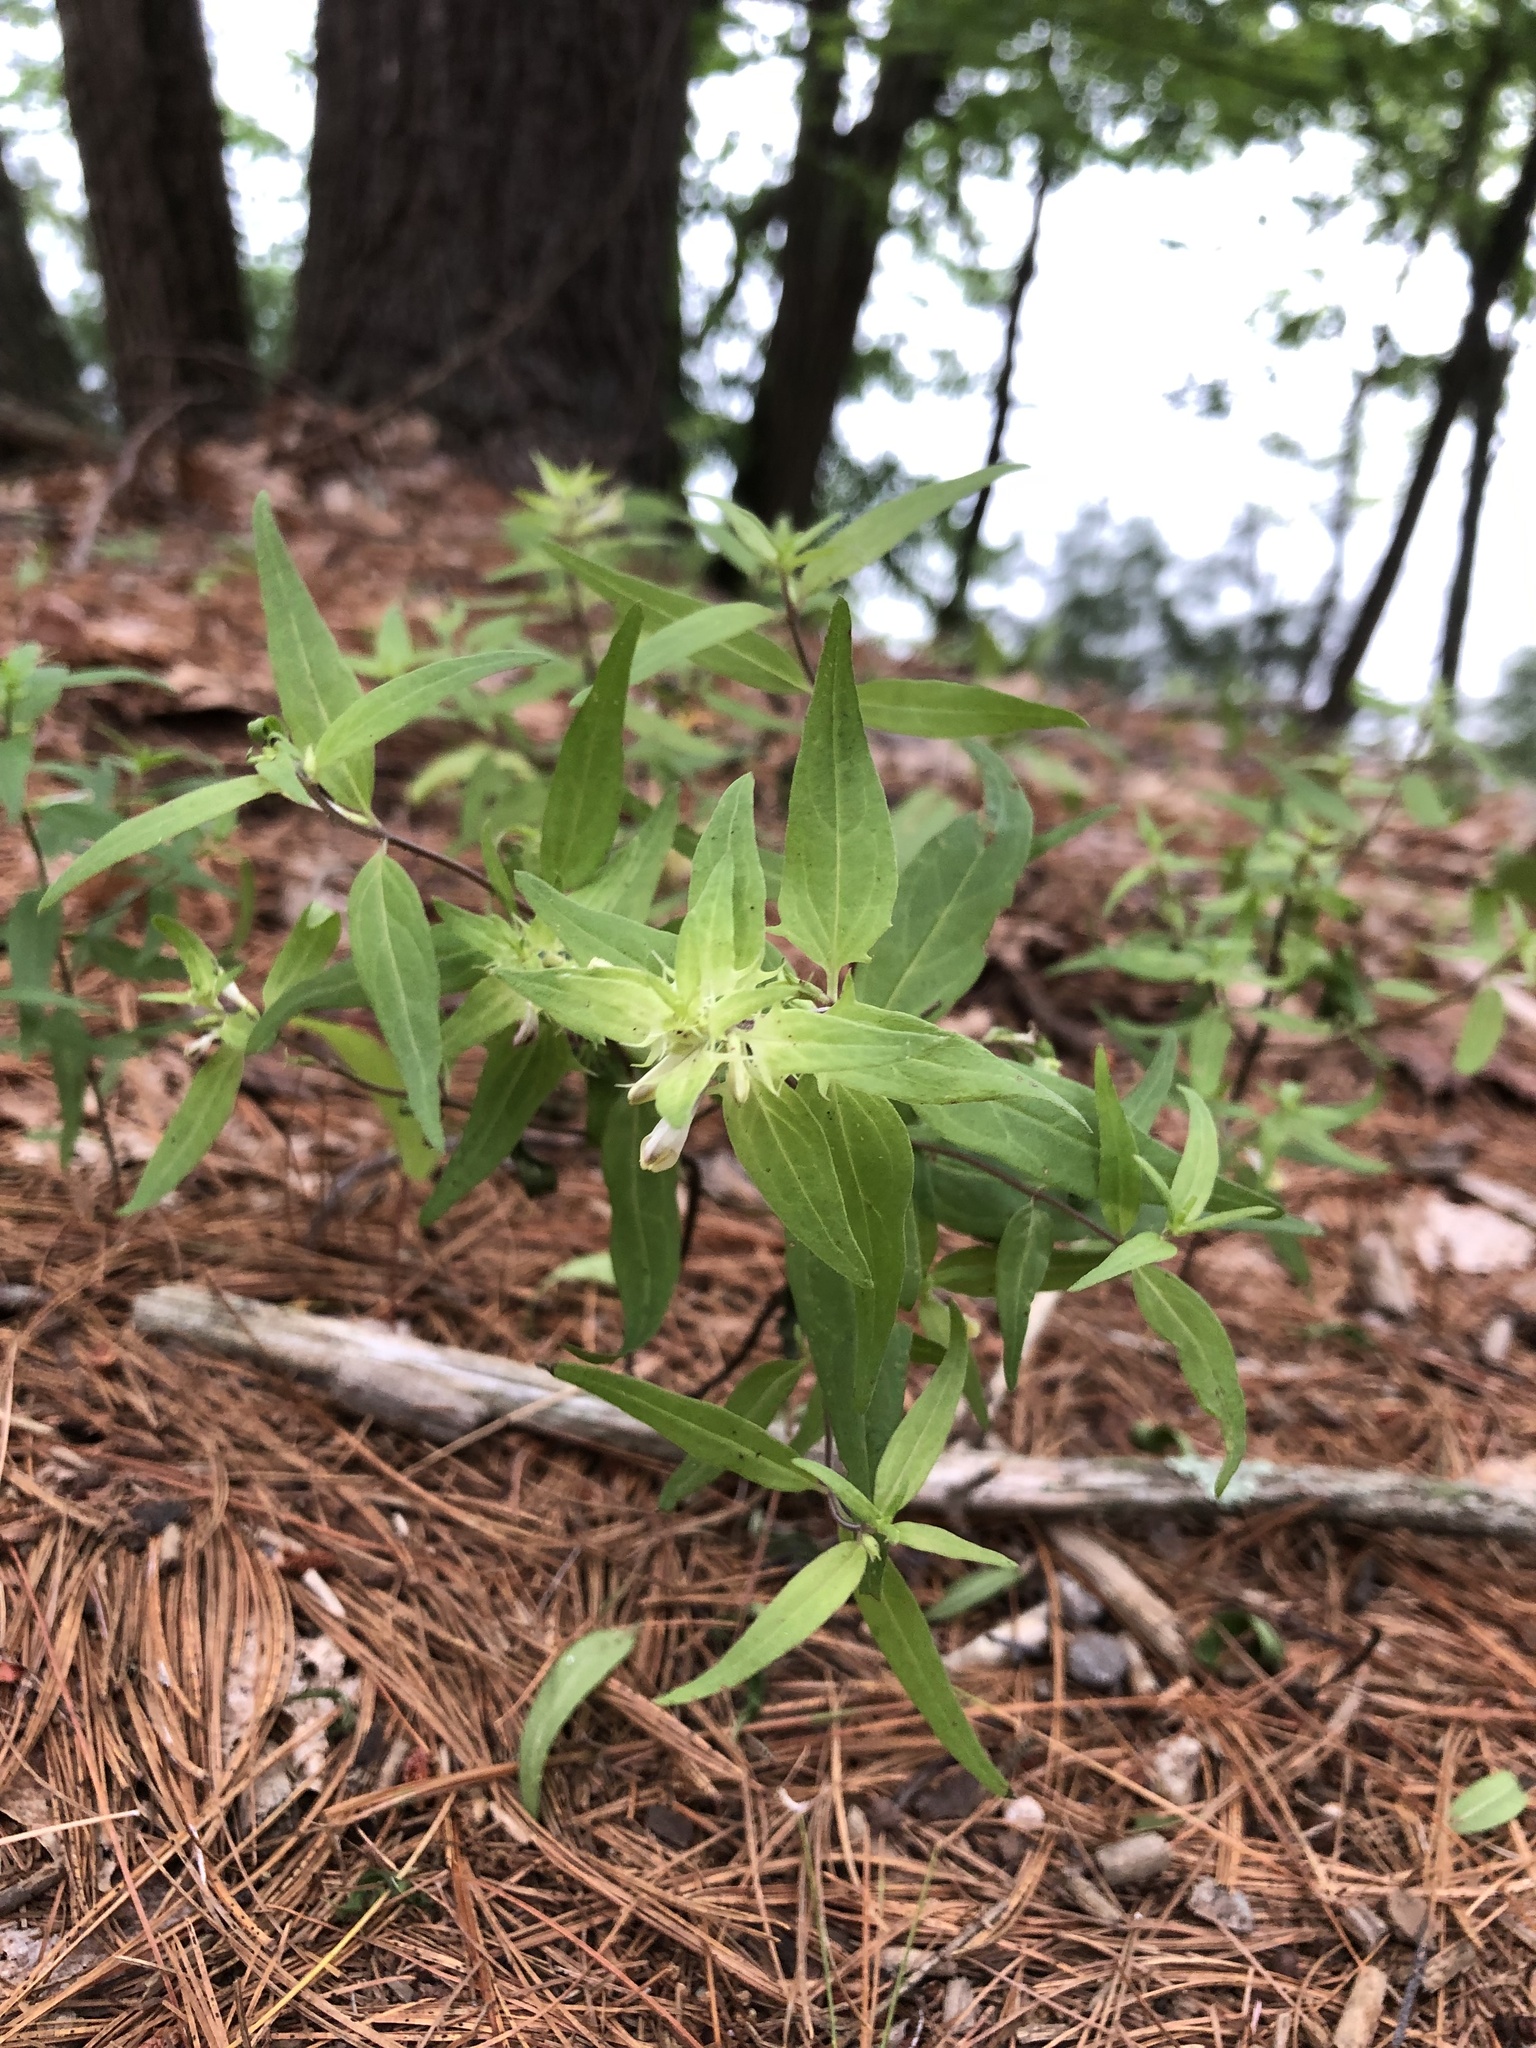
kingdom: Plantae
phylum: Tracheophyta
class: Magnoliopsida
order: Lamiales
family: Orobanchaceae
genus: Melampyrum
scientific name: Melampyrum lineare
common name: American cow-wheat
